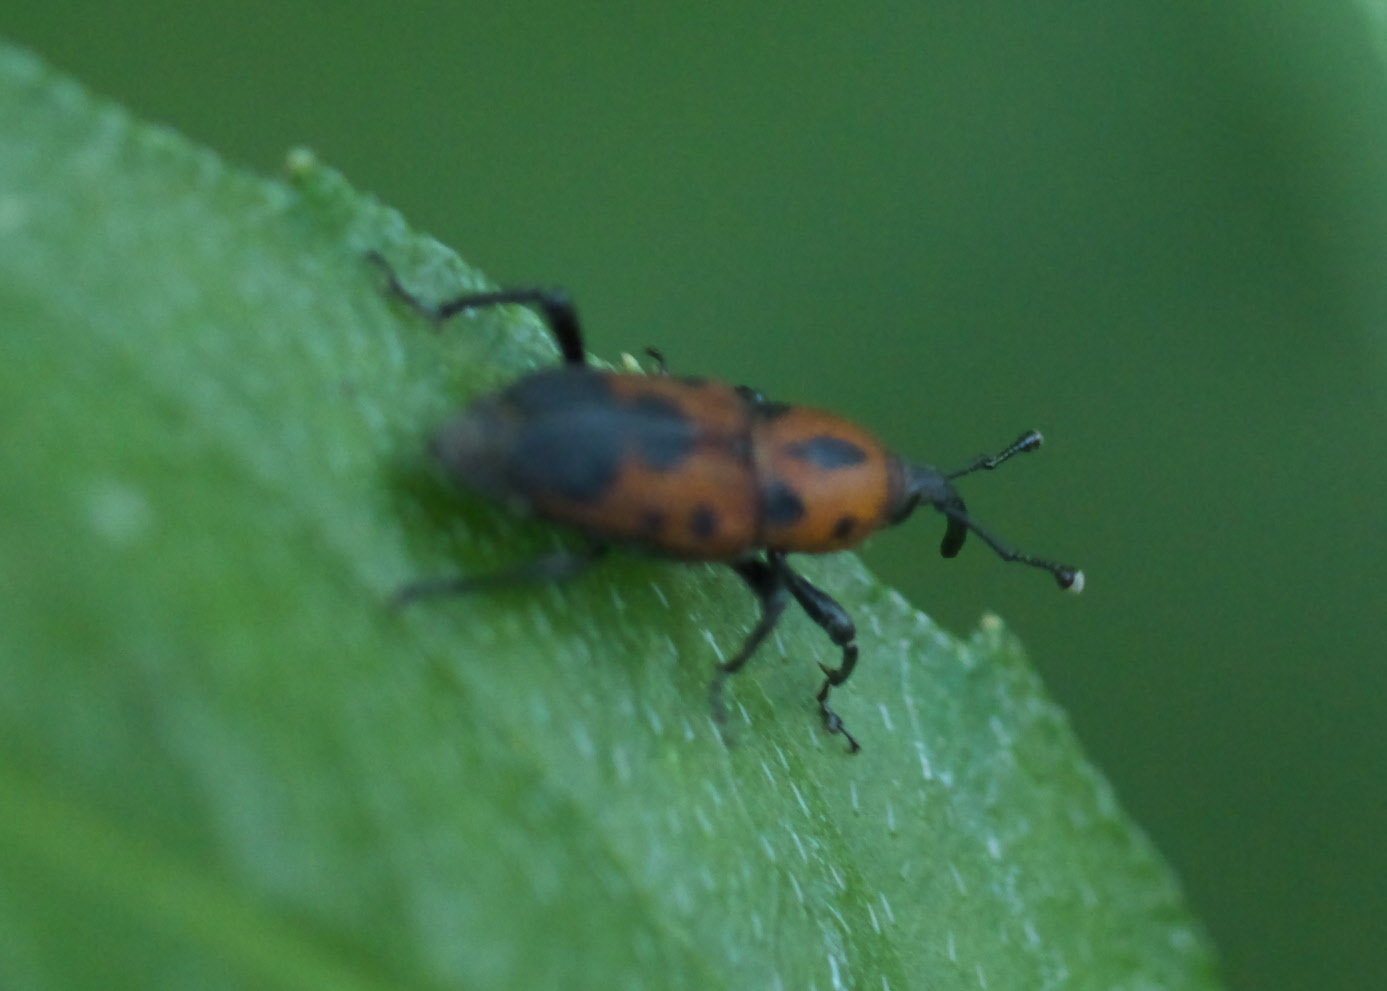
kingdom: Animalia
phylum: Arthropoda
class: Insecta
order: Coleoptera
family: Dryophthoridae
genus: Rhodobaenus
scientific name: Rhodobaenus quinquepunctatus
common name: Cocklebur weevil
